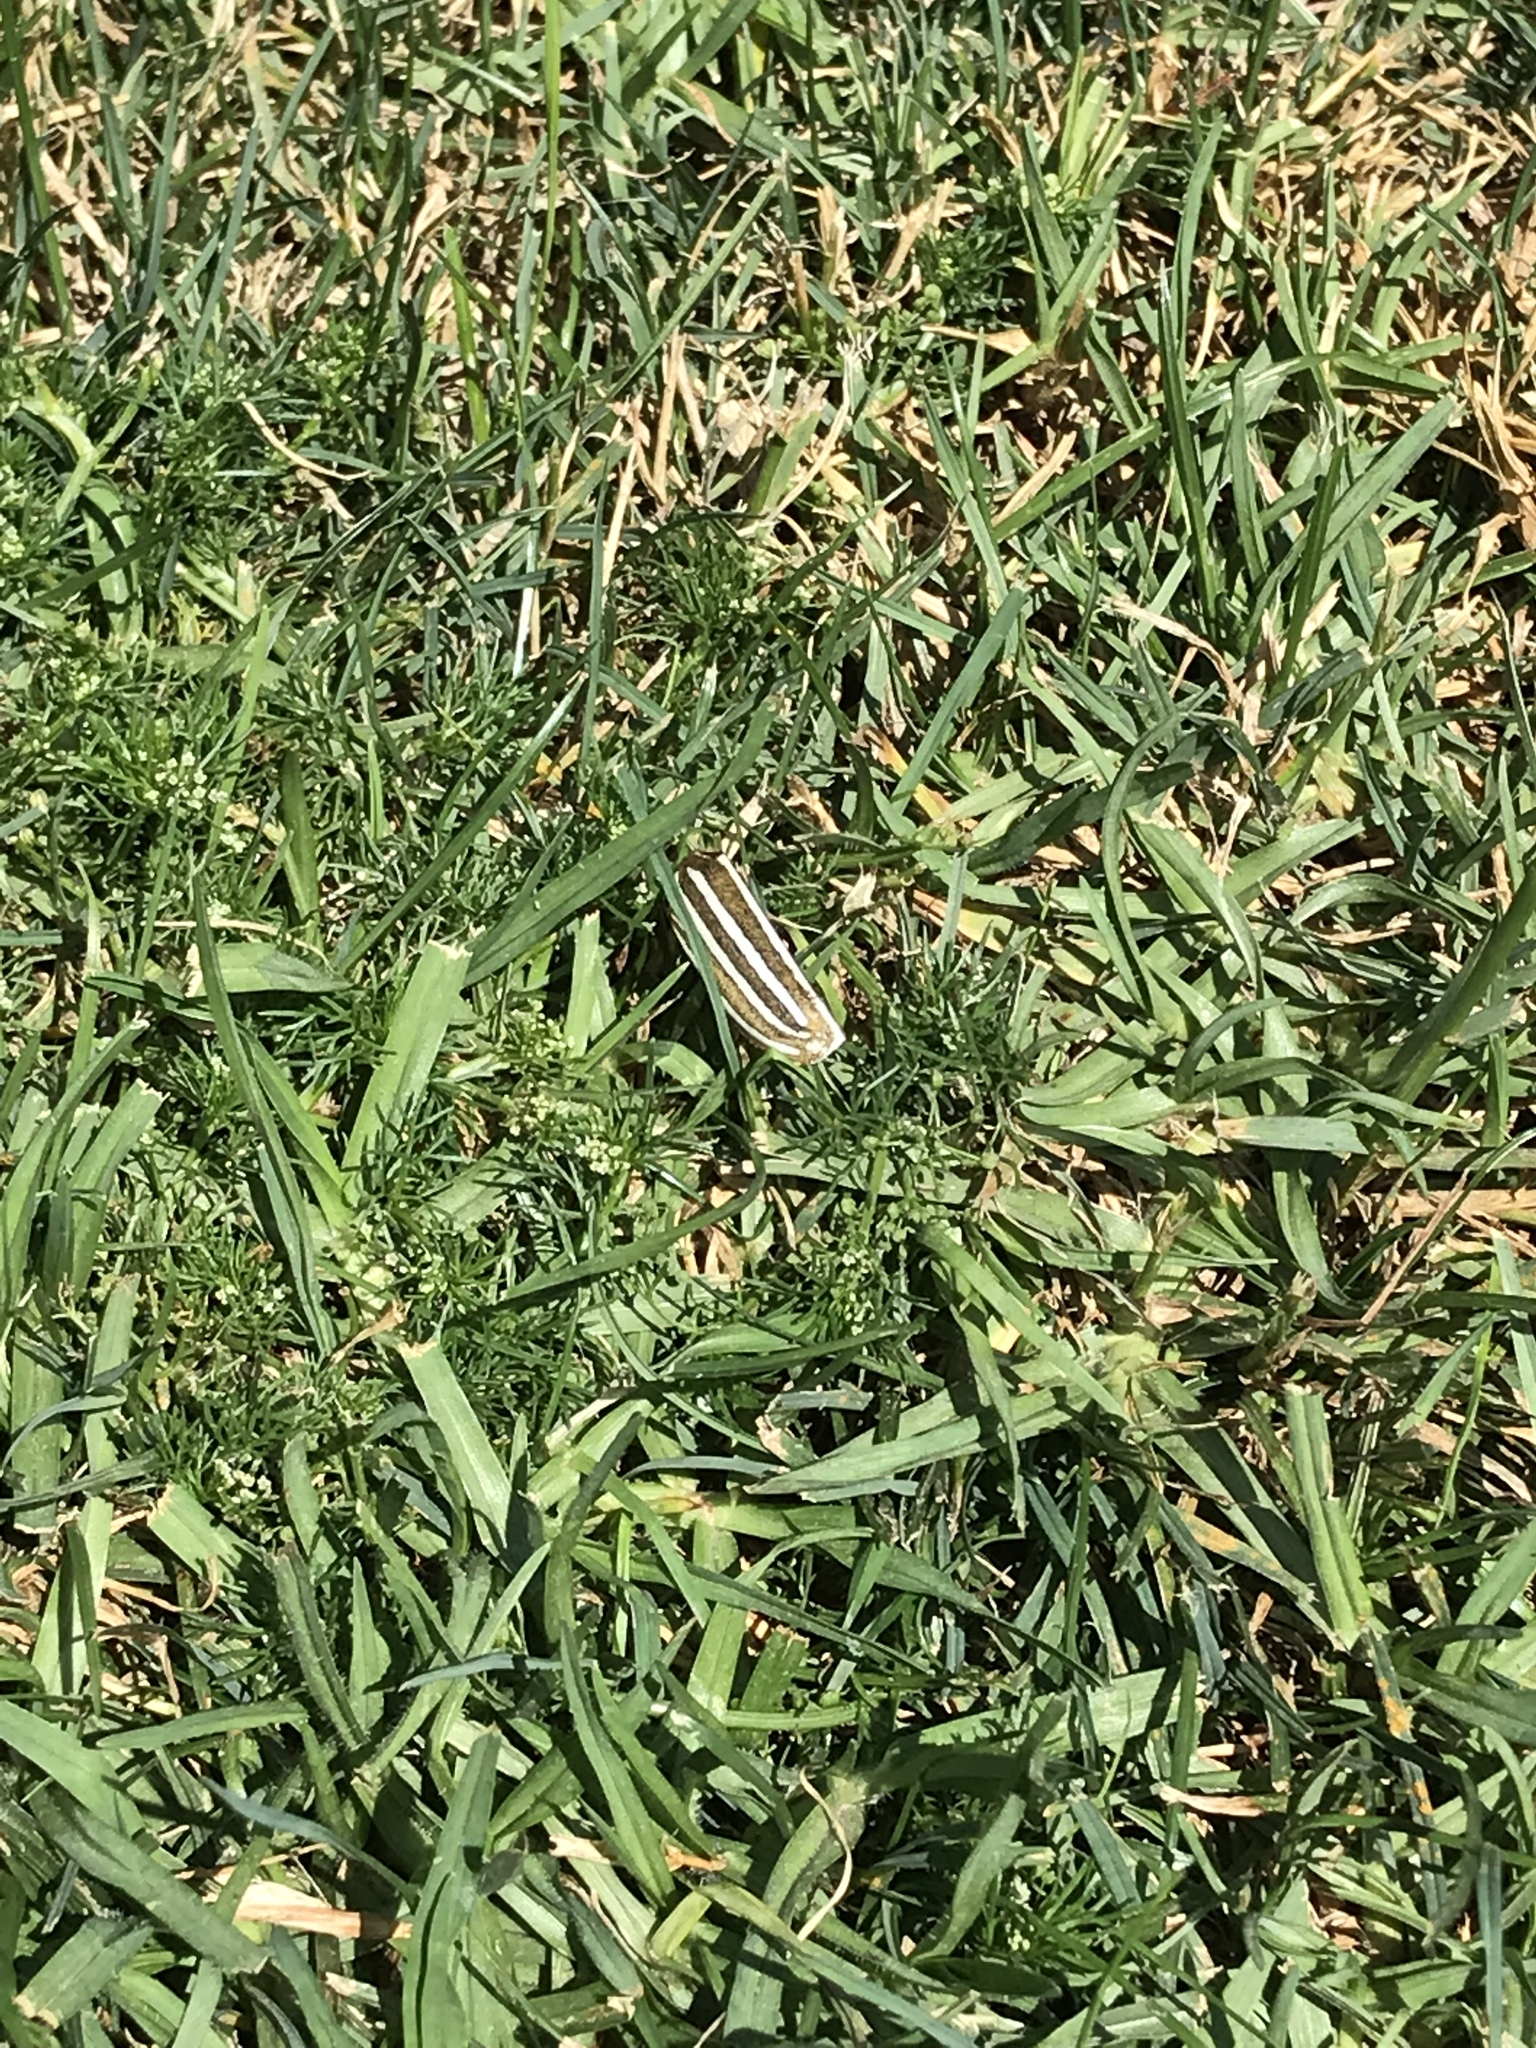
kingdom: Animalia
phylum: Arthropoda
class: Insecta
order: Coleoptera
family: Scarabaeidae
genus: Polyphylla
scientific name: Polyphylla decemlineata
